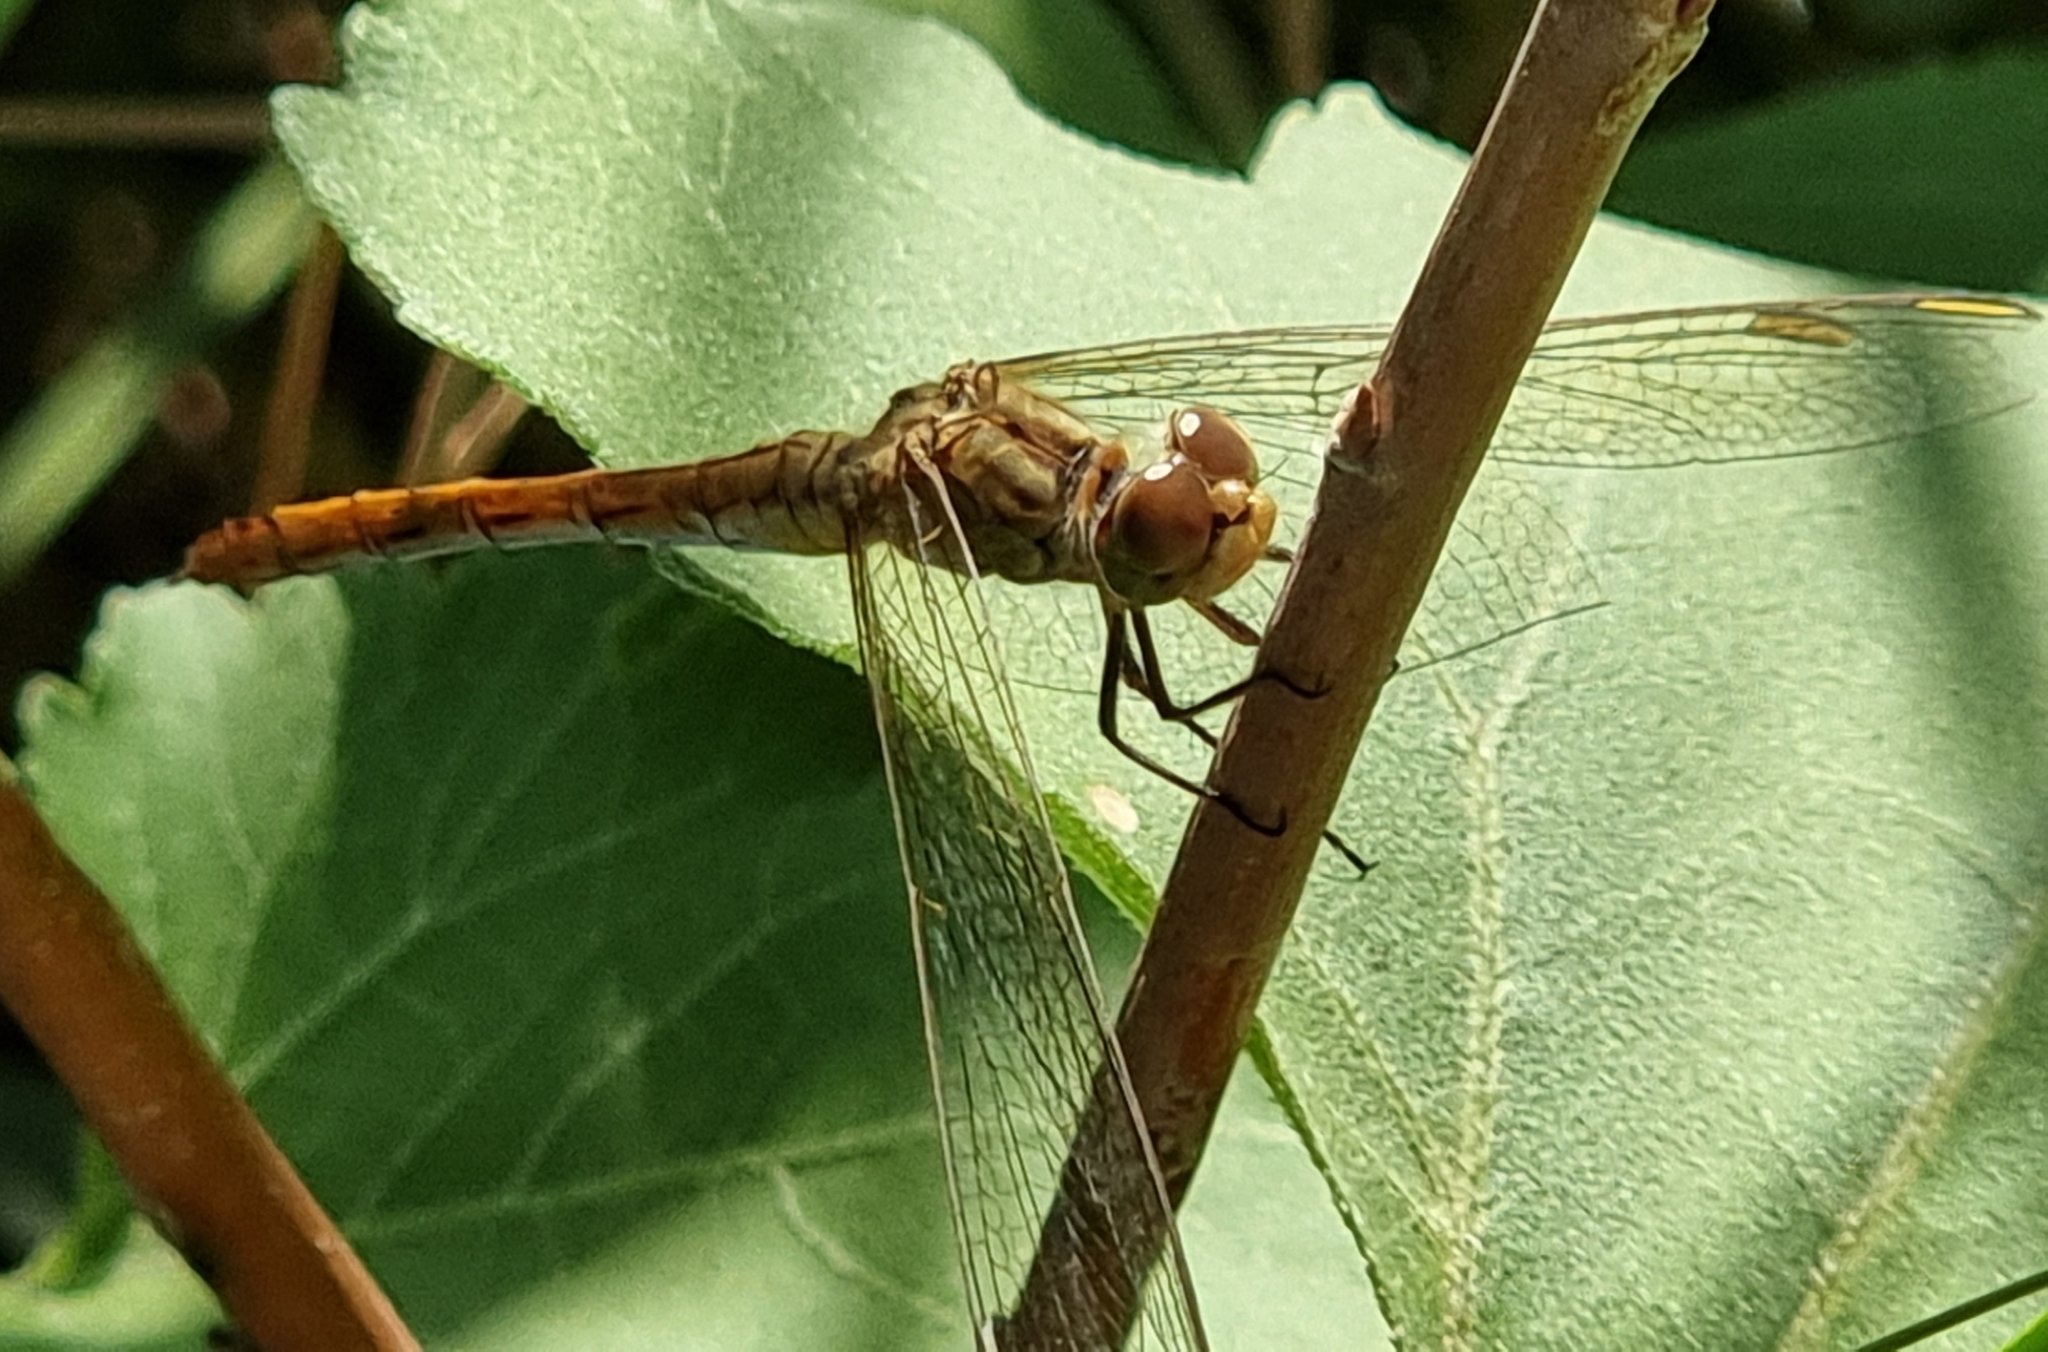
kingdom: Animalia
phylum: Arthropoda
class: Insecta
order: Odonata
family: Libellulidae
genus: Sympetrum
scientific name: Sympetrum meridionale
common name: Southern darter
